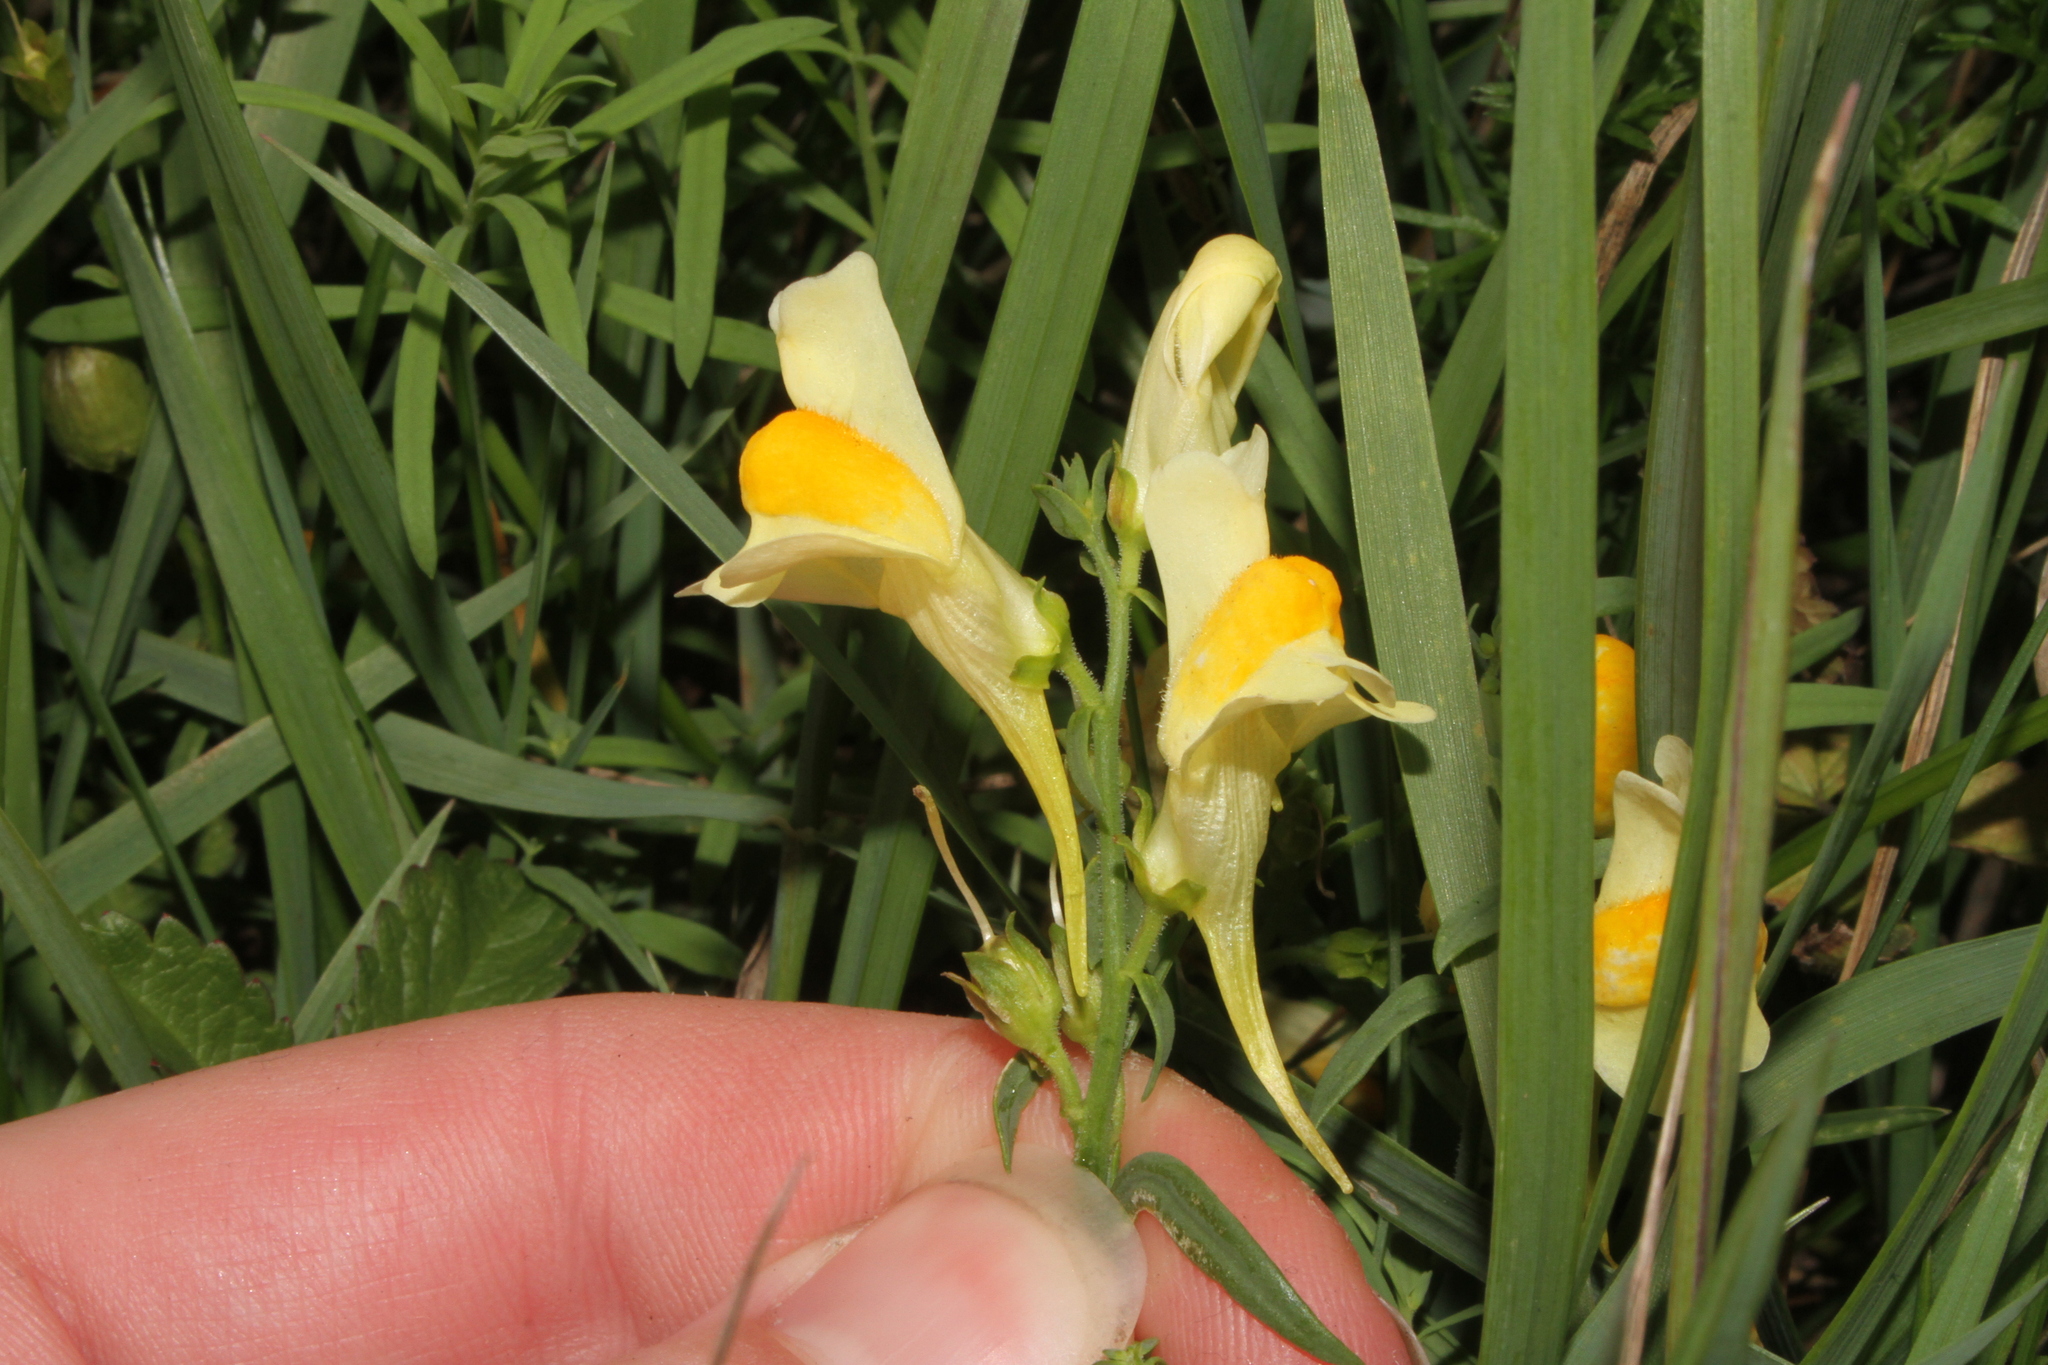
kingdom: Plantae
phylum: Tracheophyta
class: Magnoliopsida
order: Lamiales
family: Plantaginaceae
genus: Linaria
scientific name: Linaria vulgaris
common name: Butter and eggs
